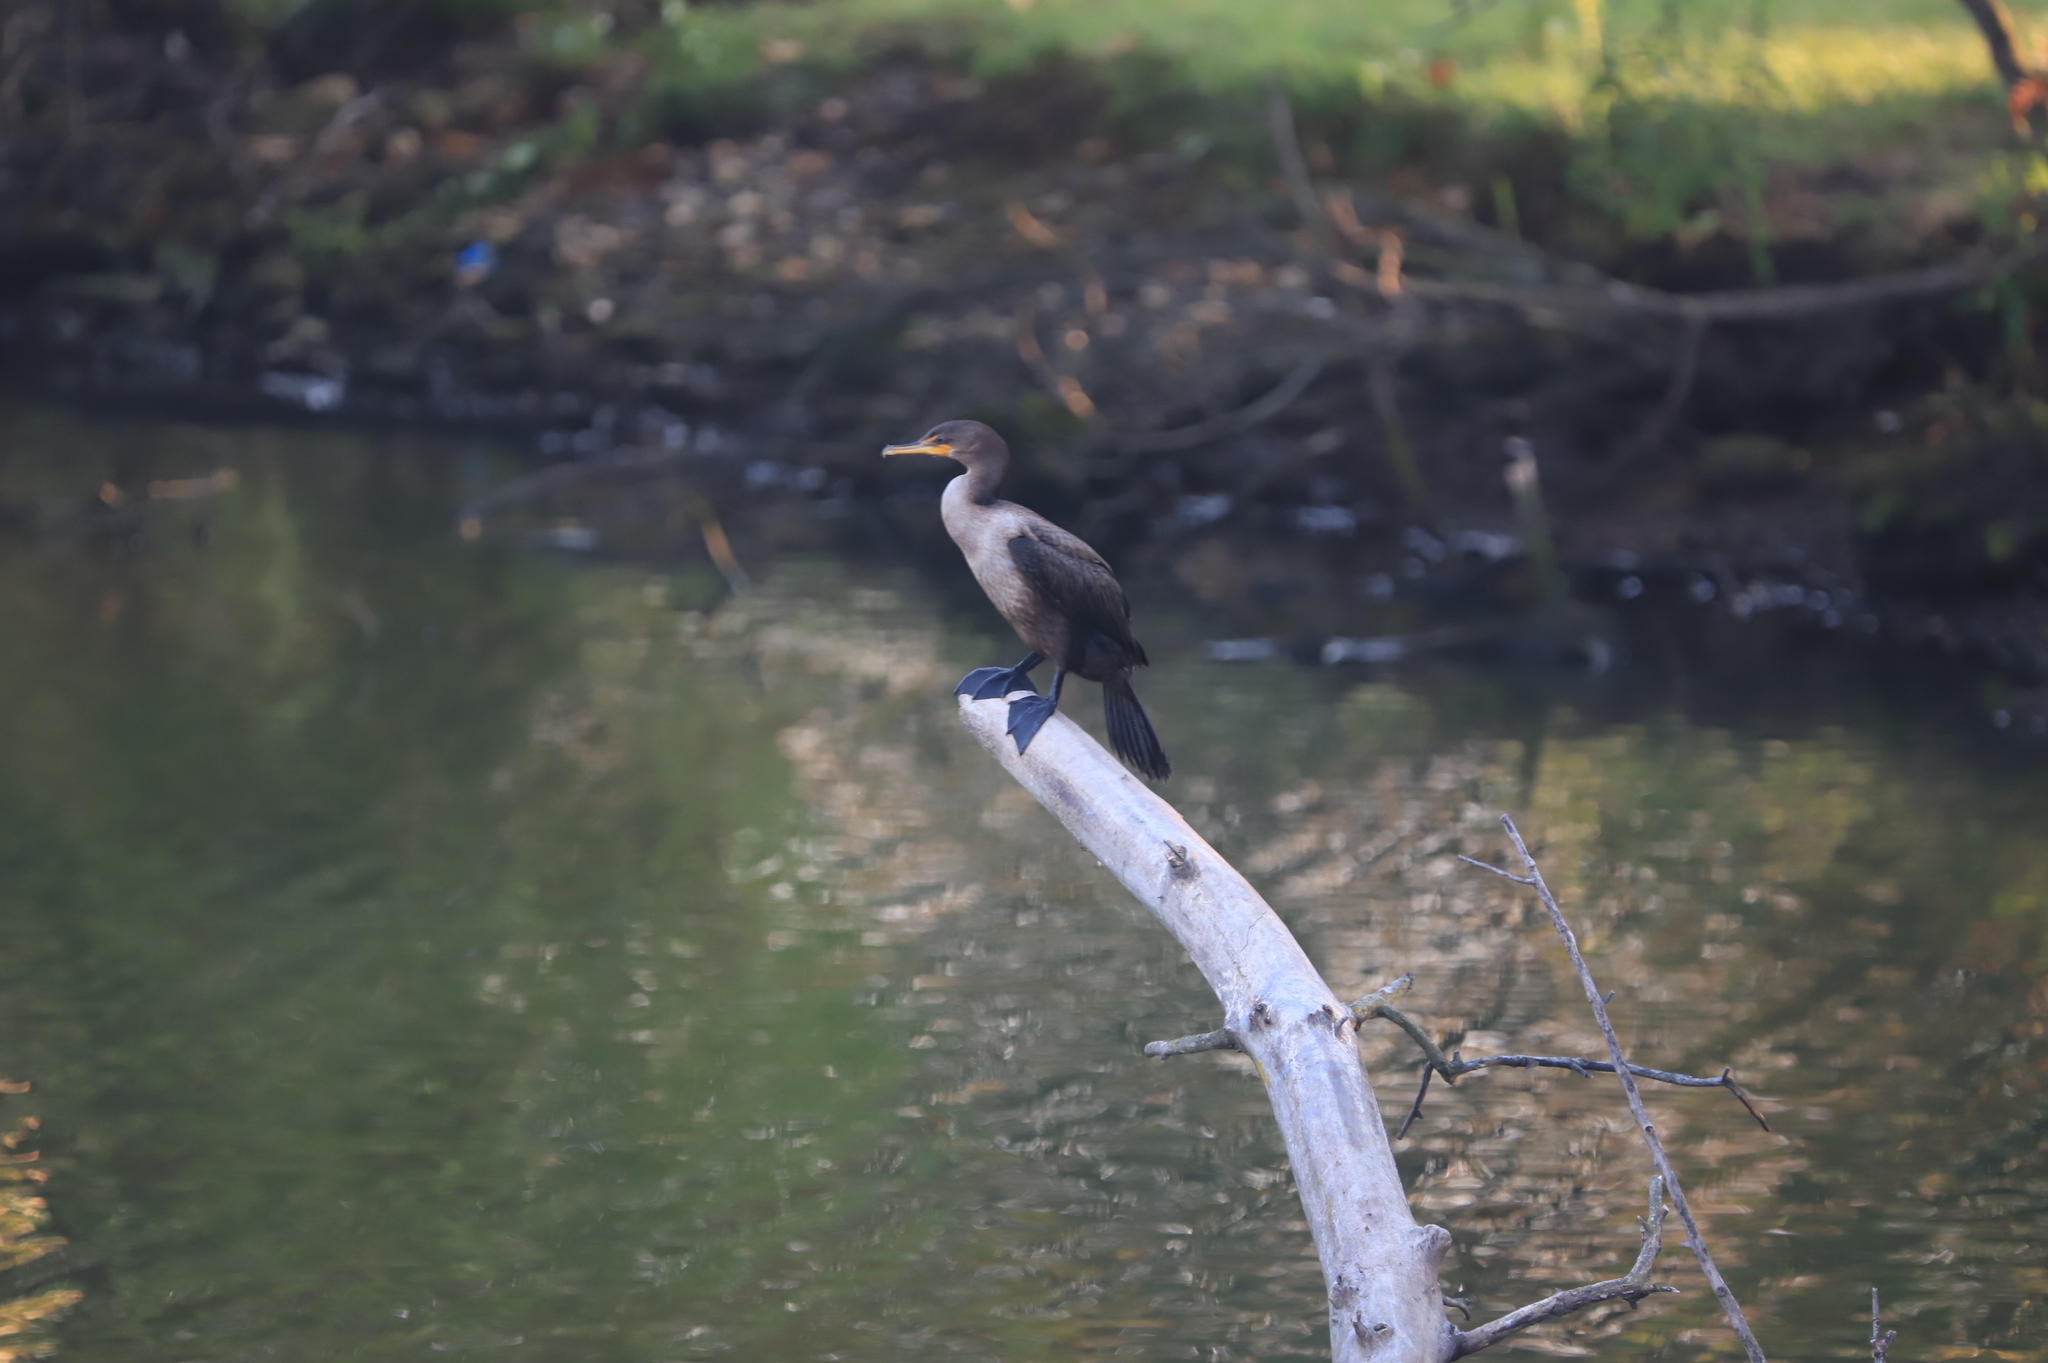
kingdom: Animalia
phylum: Chordata
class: Aves
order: Suliformes
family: Phalacrocoracidae
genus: Phalacrocorax
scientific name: Phalacrocorax auritus
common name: Double-crested cormorant
